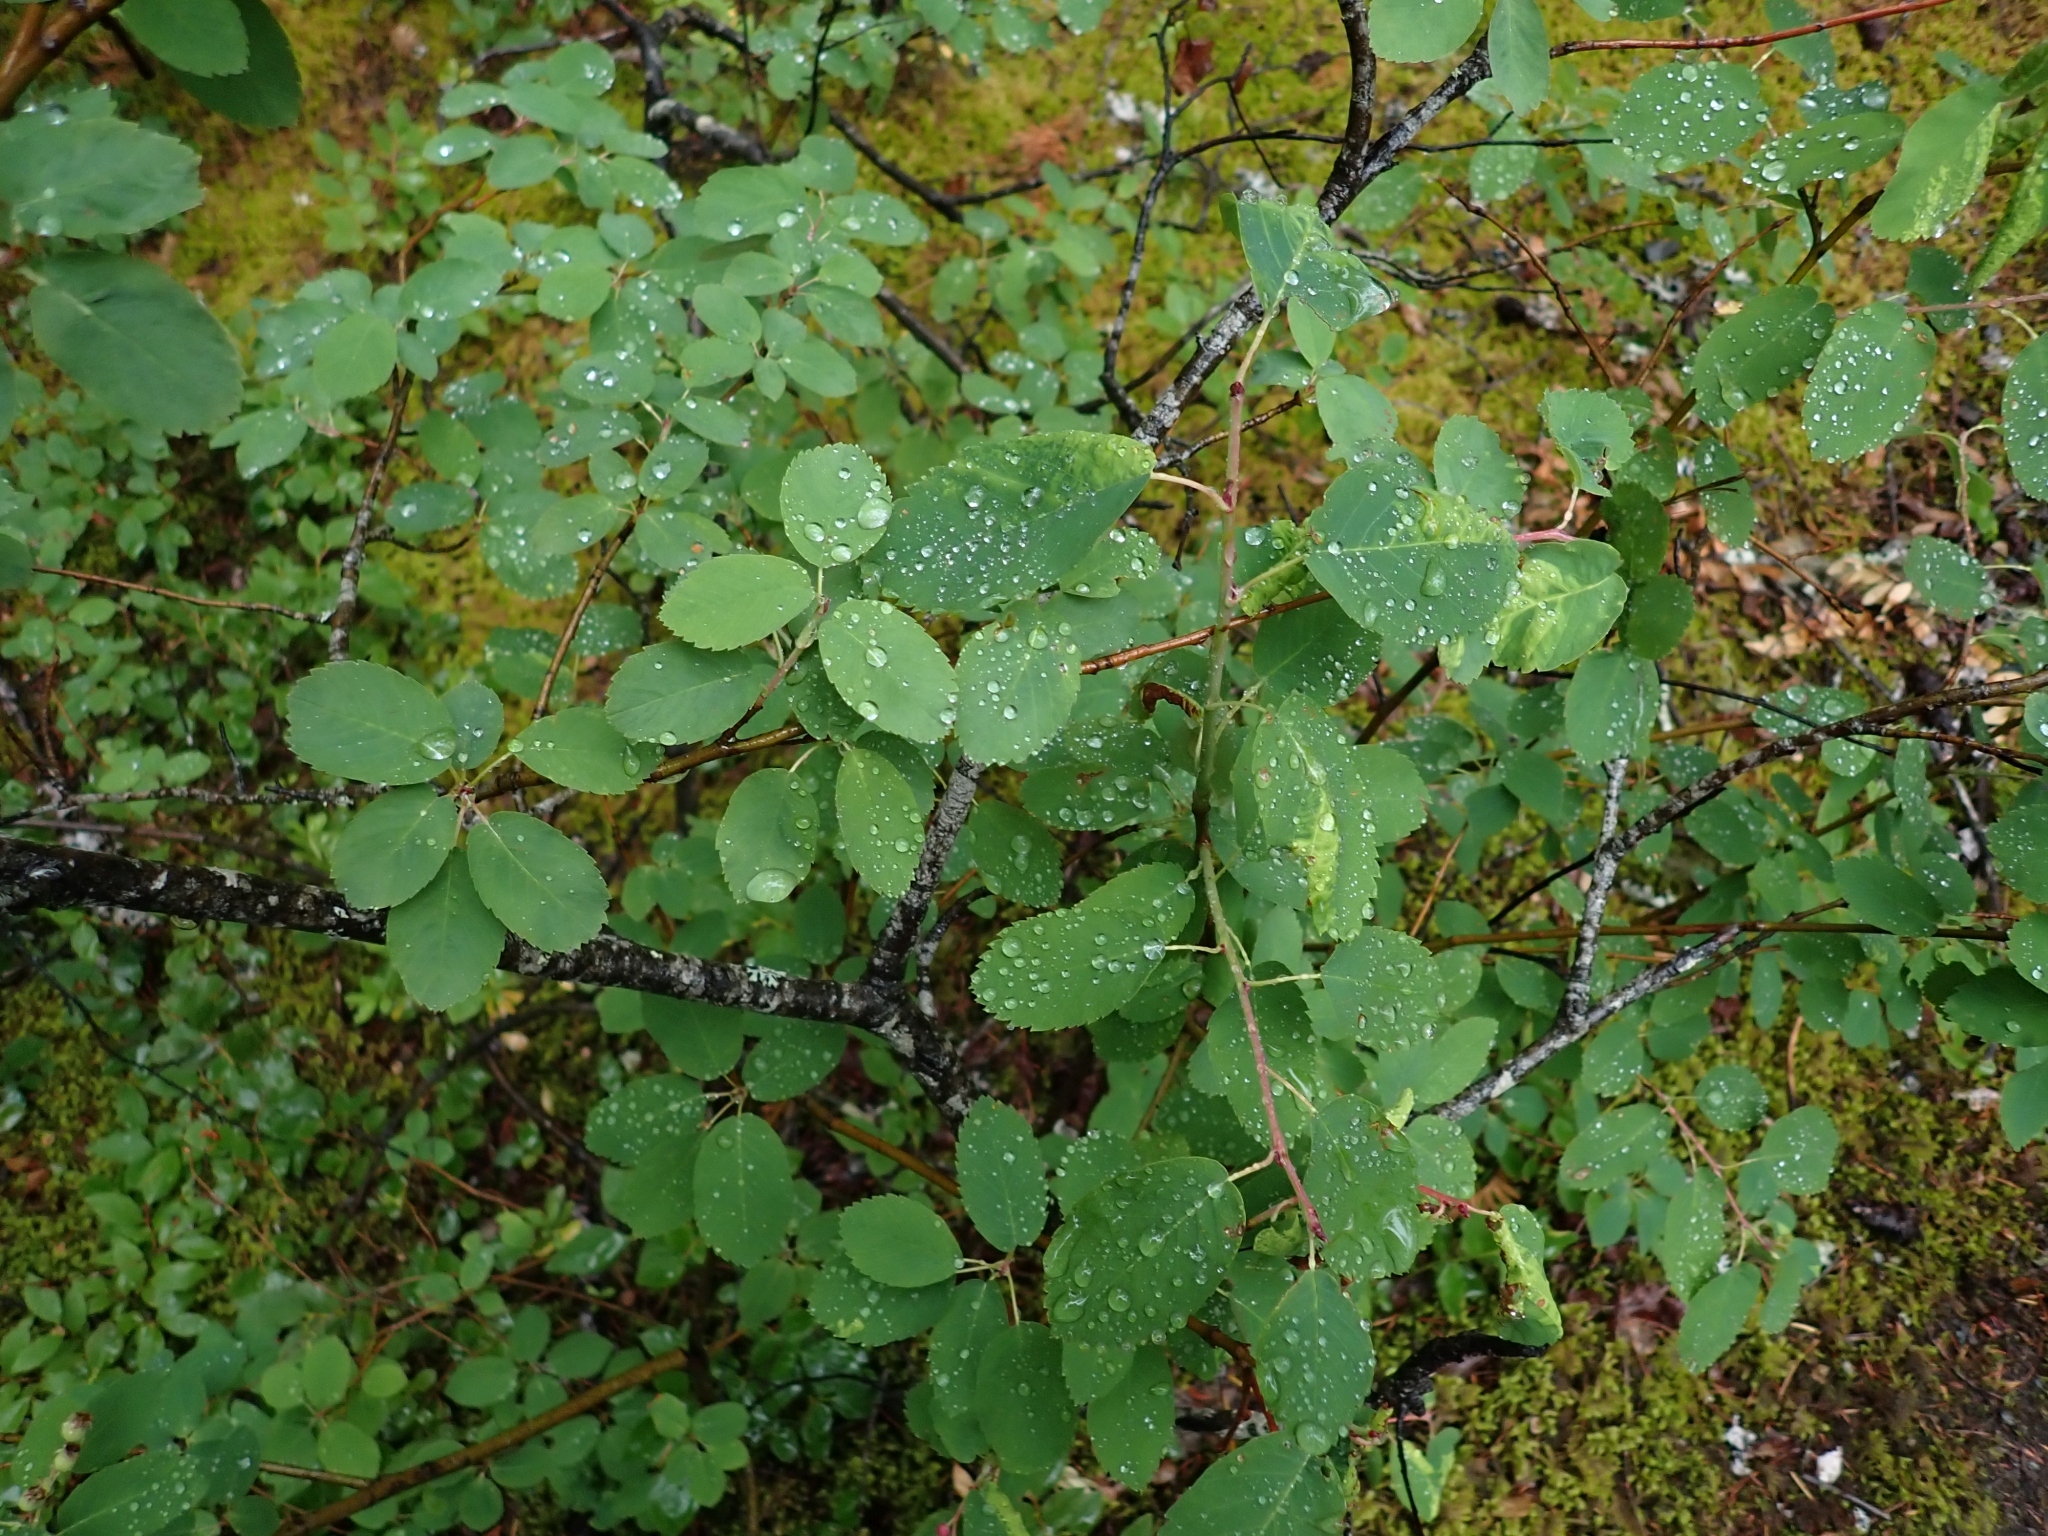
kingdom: Plantae
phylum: Tracheophyta
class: Magnoliopsida
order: Rosales
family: Rosaceae
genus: Amelanchier
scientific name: Amelanchier alnifolia
